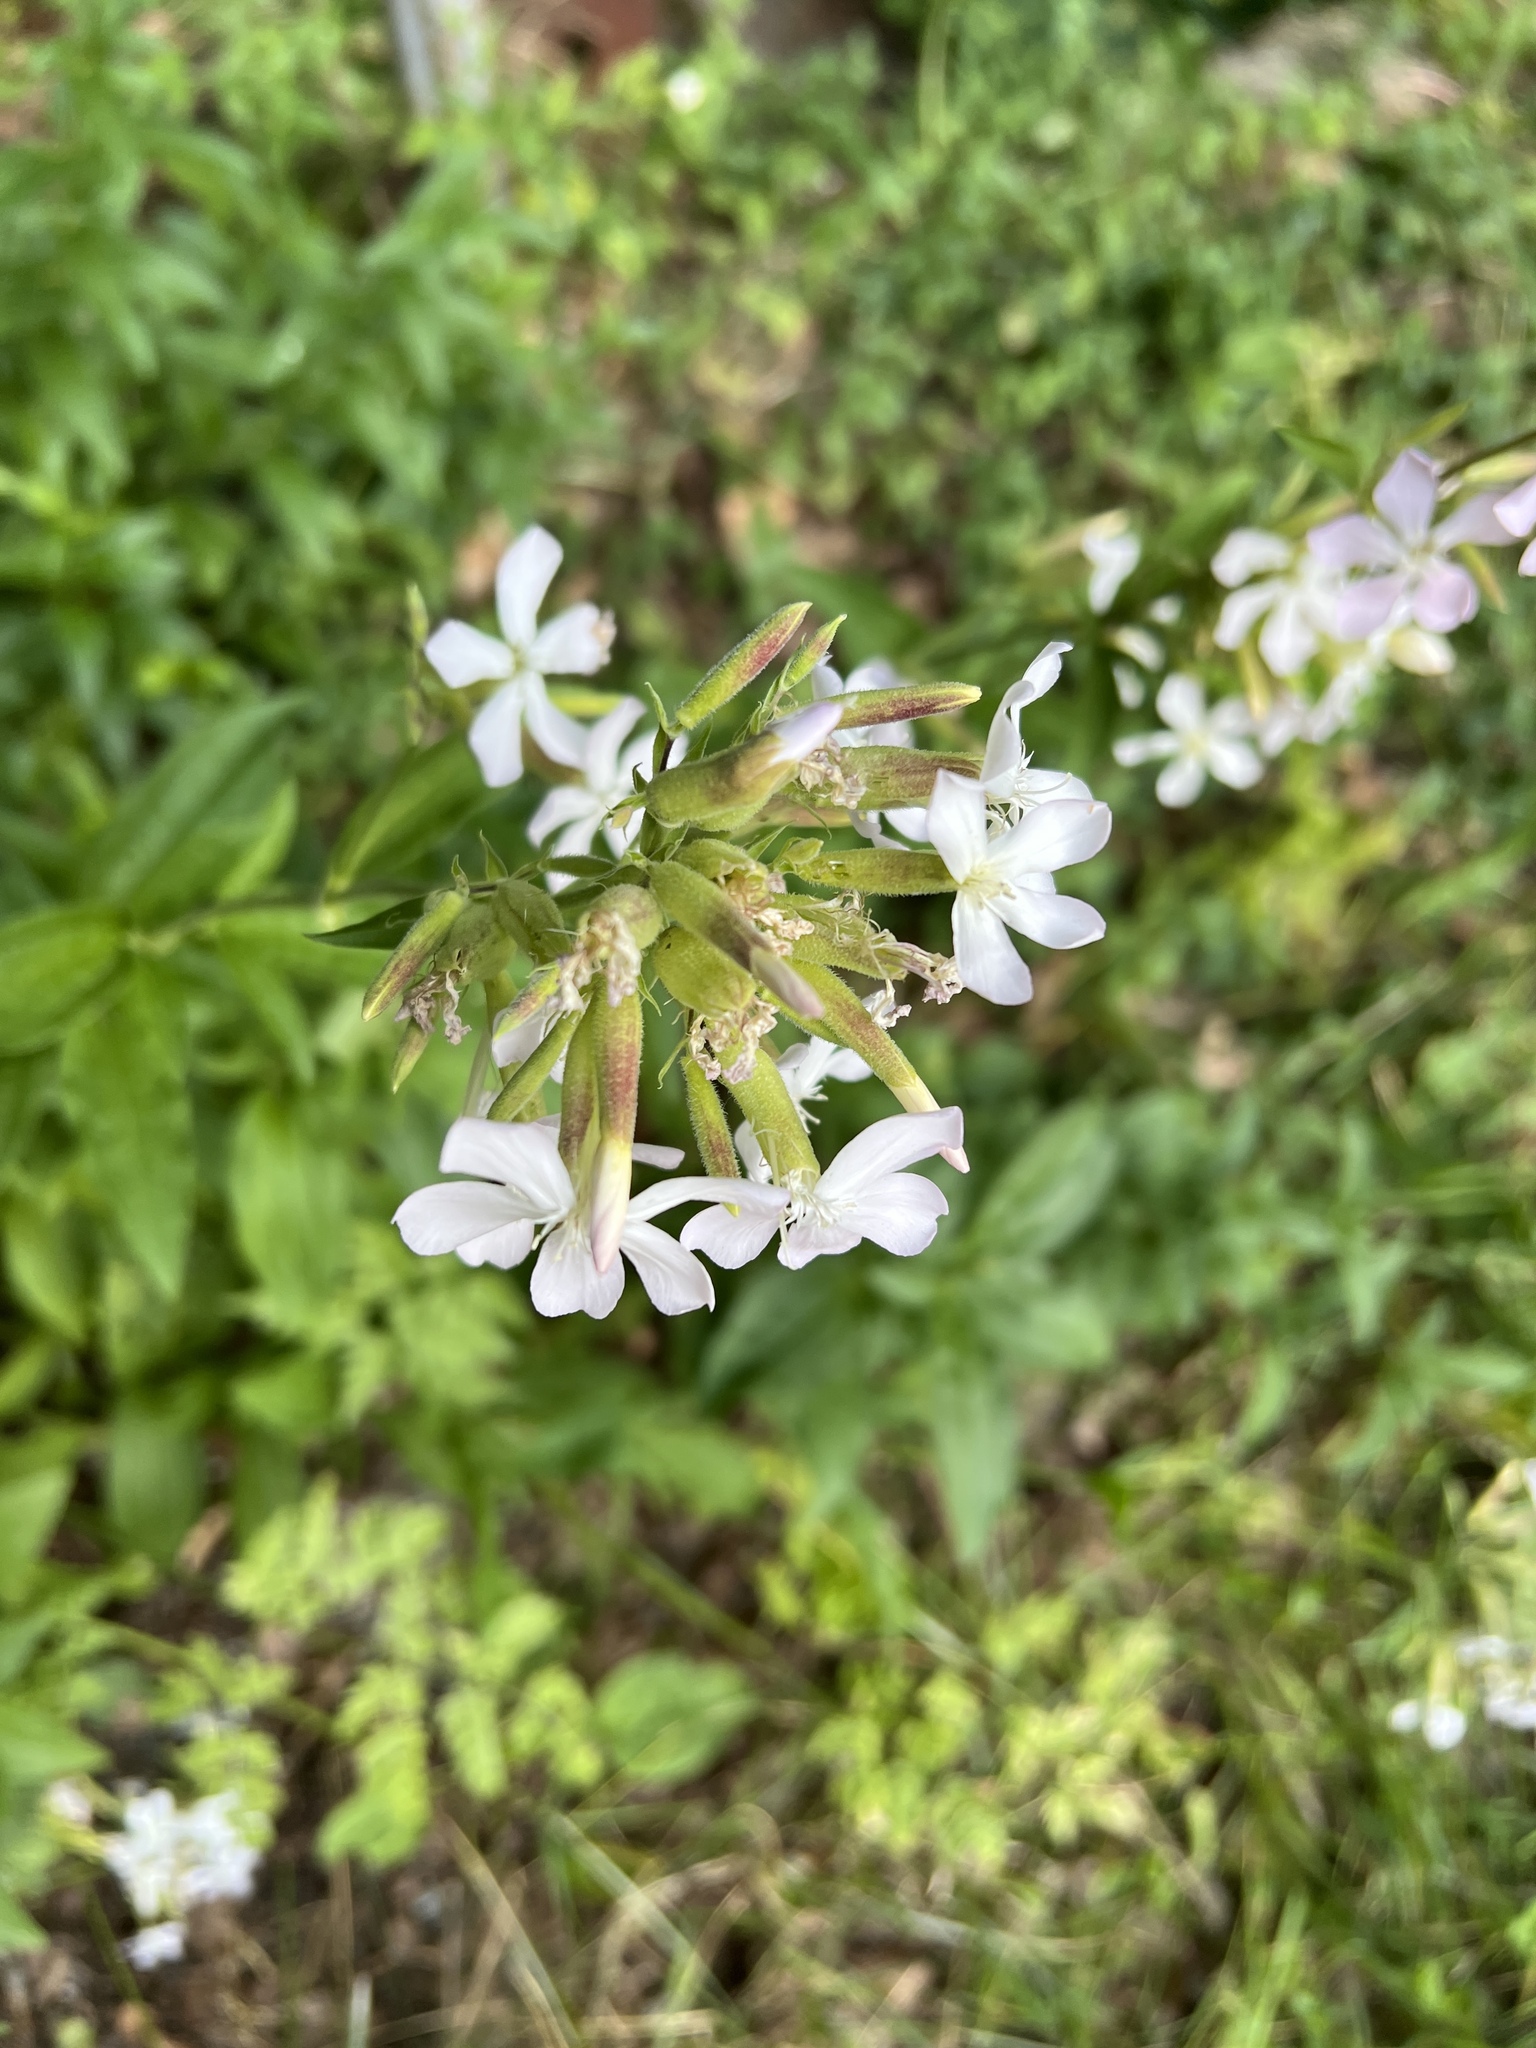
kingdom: Plantae
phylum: Tracheophyta
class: Magnoliopsida
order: Caryophyllales
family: Caryophyllaceae
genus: Saponaria
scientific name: Saponaria officinalis
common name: Soapwort
